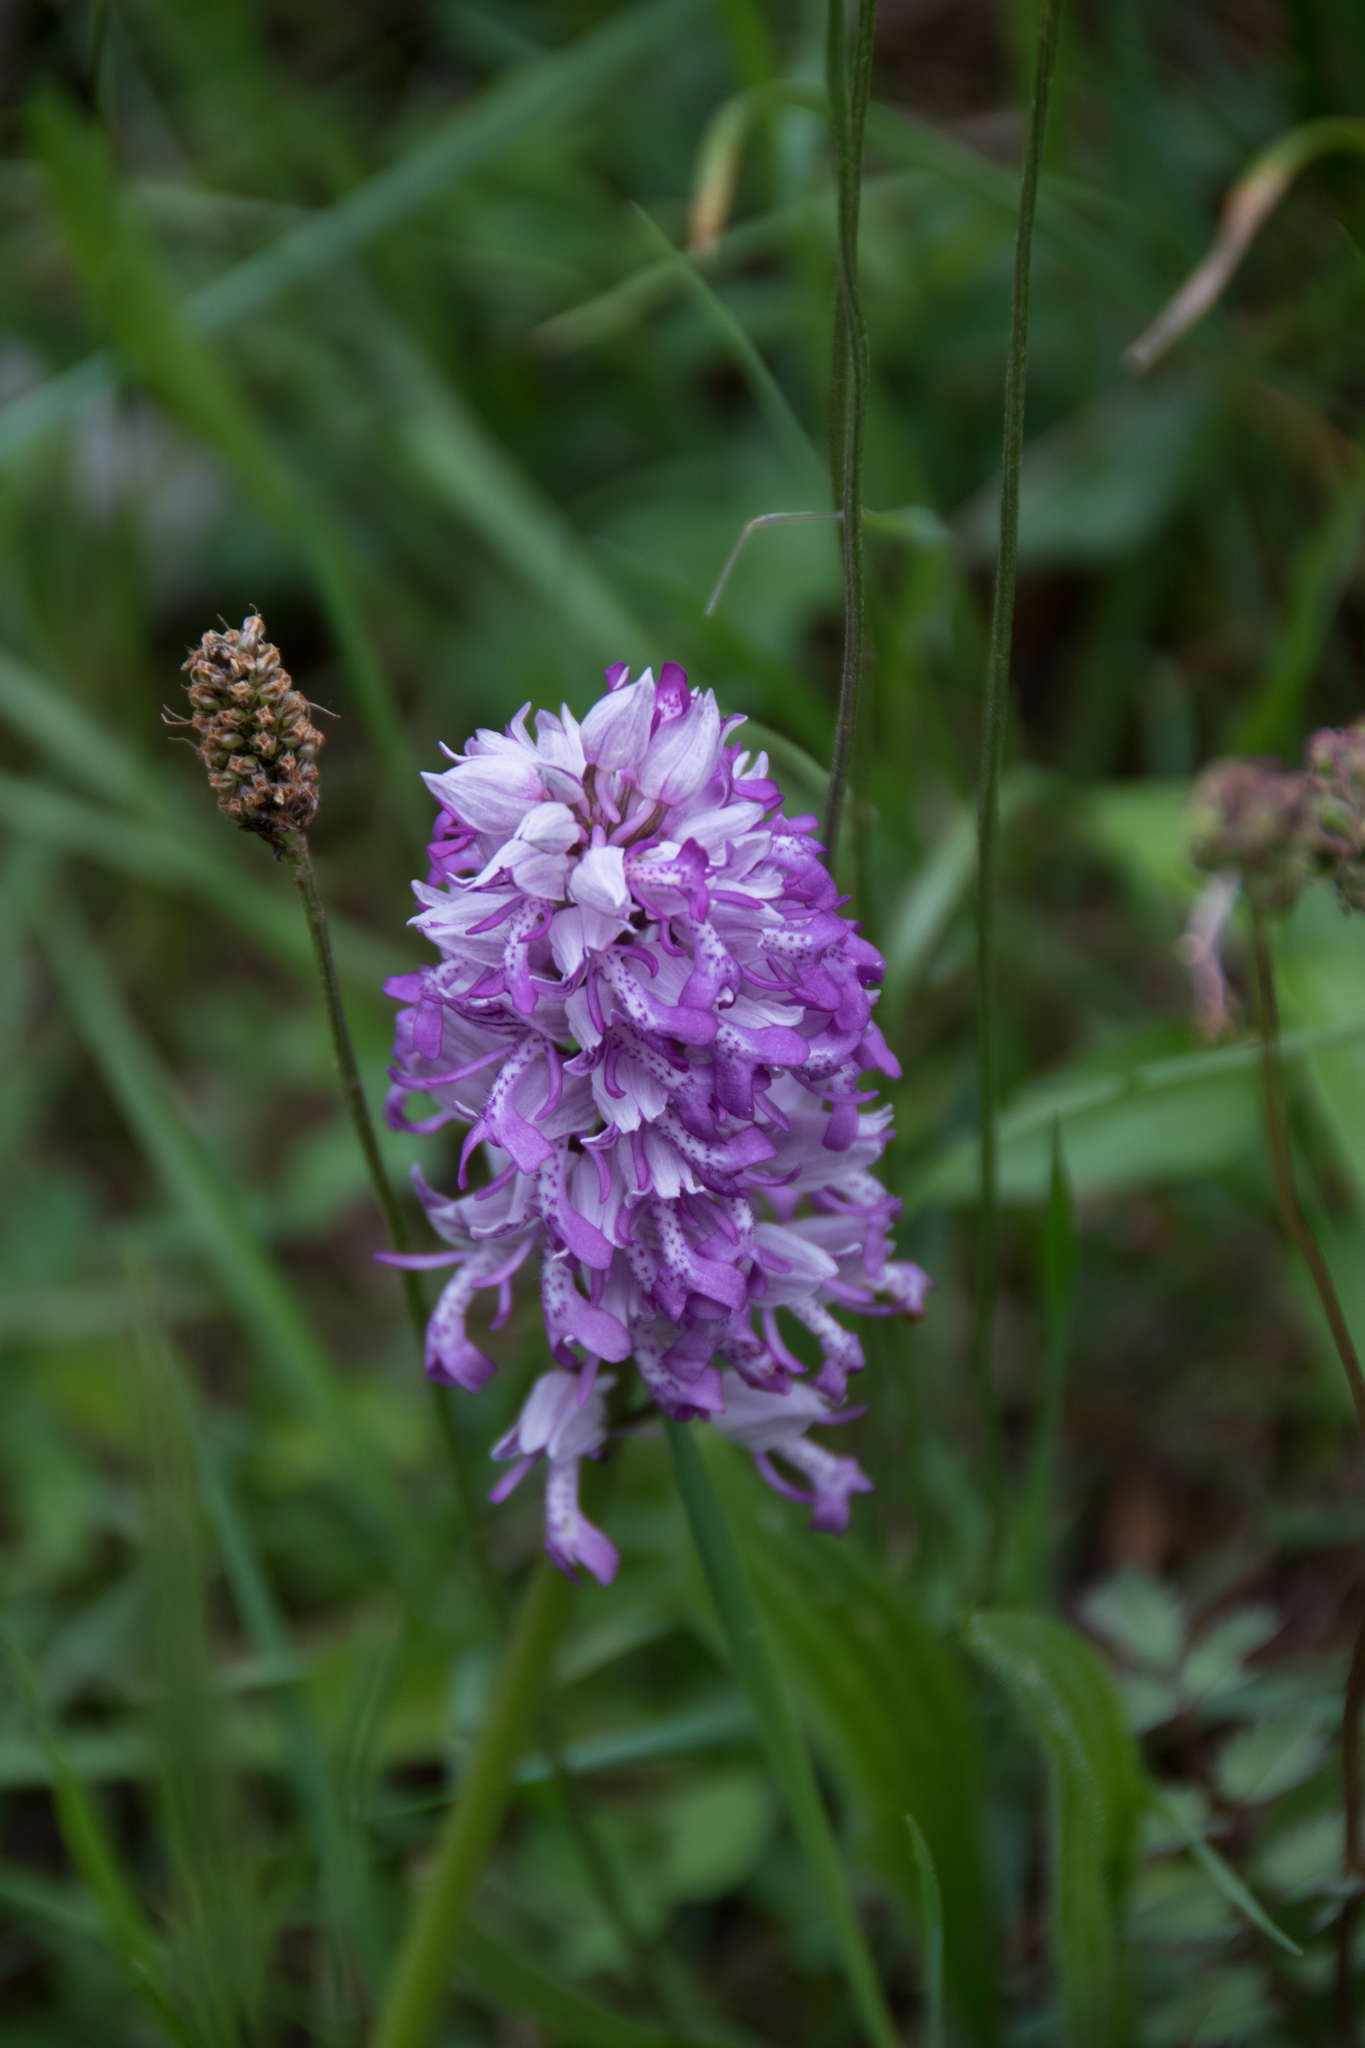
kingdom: Plantae
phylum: Tracheophyta
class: Liliopsida
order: Asparagales
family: Orchidaceae
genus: Orchis
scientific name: Orchis militaris
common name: Military orchid
